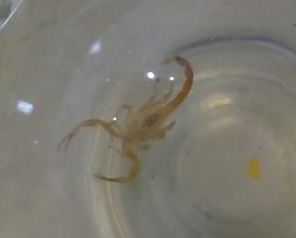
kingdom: Animalia
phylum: Arthropoda
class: Arachnida
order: Scorpiones
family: Buthidae
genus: Tityus
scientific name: Tityus stigmurus
